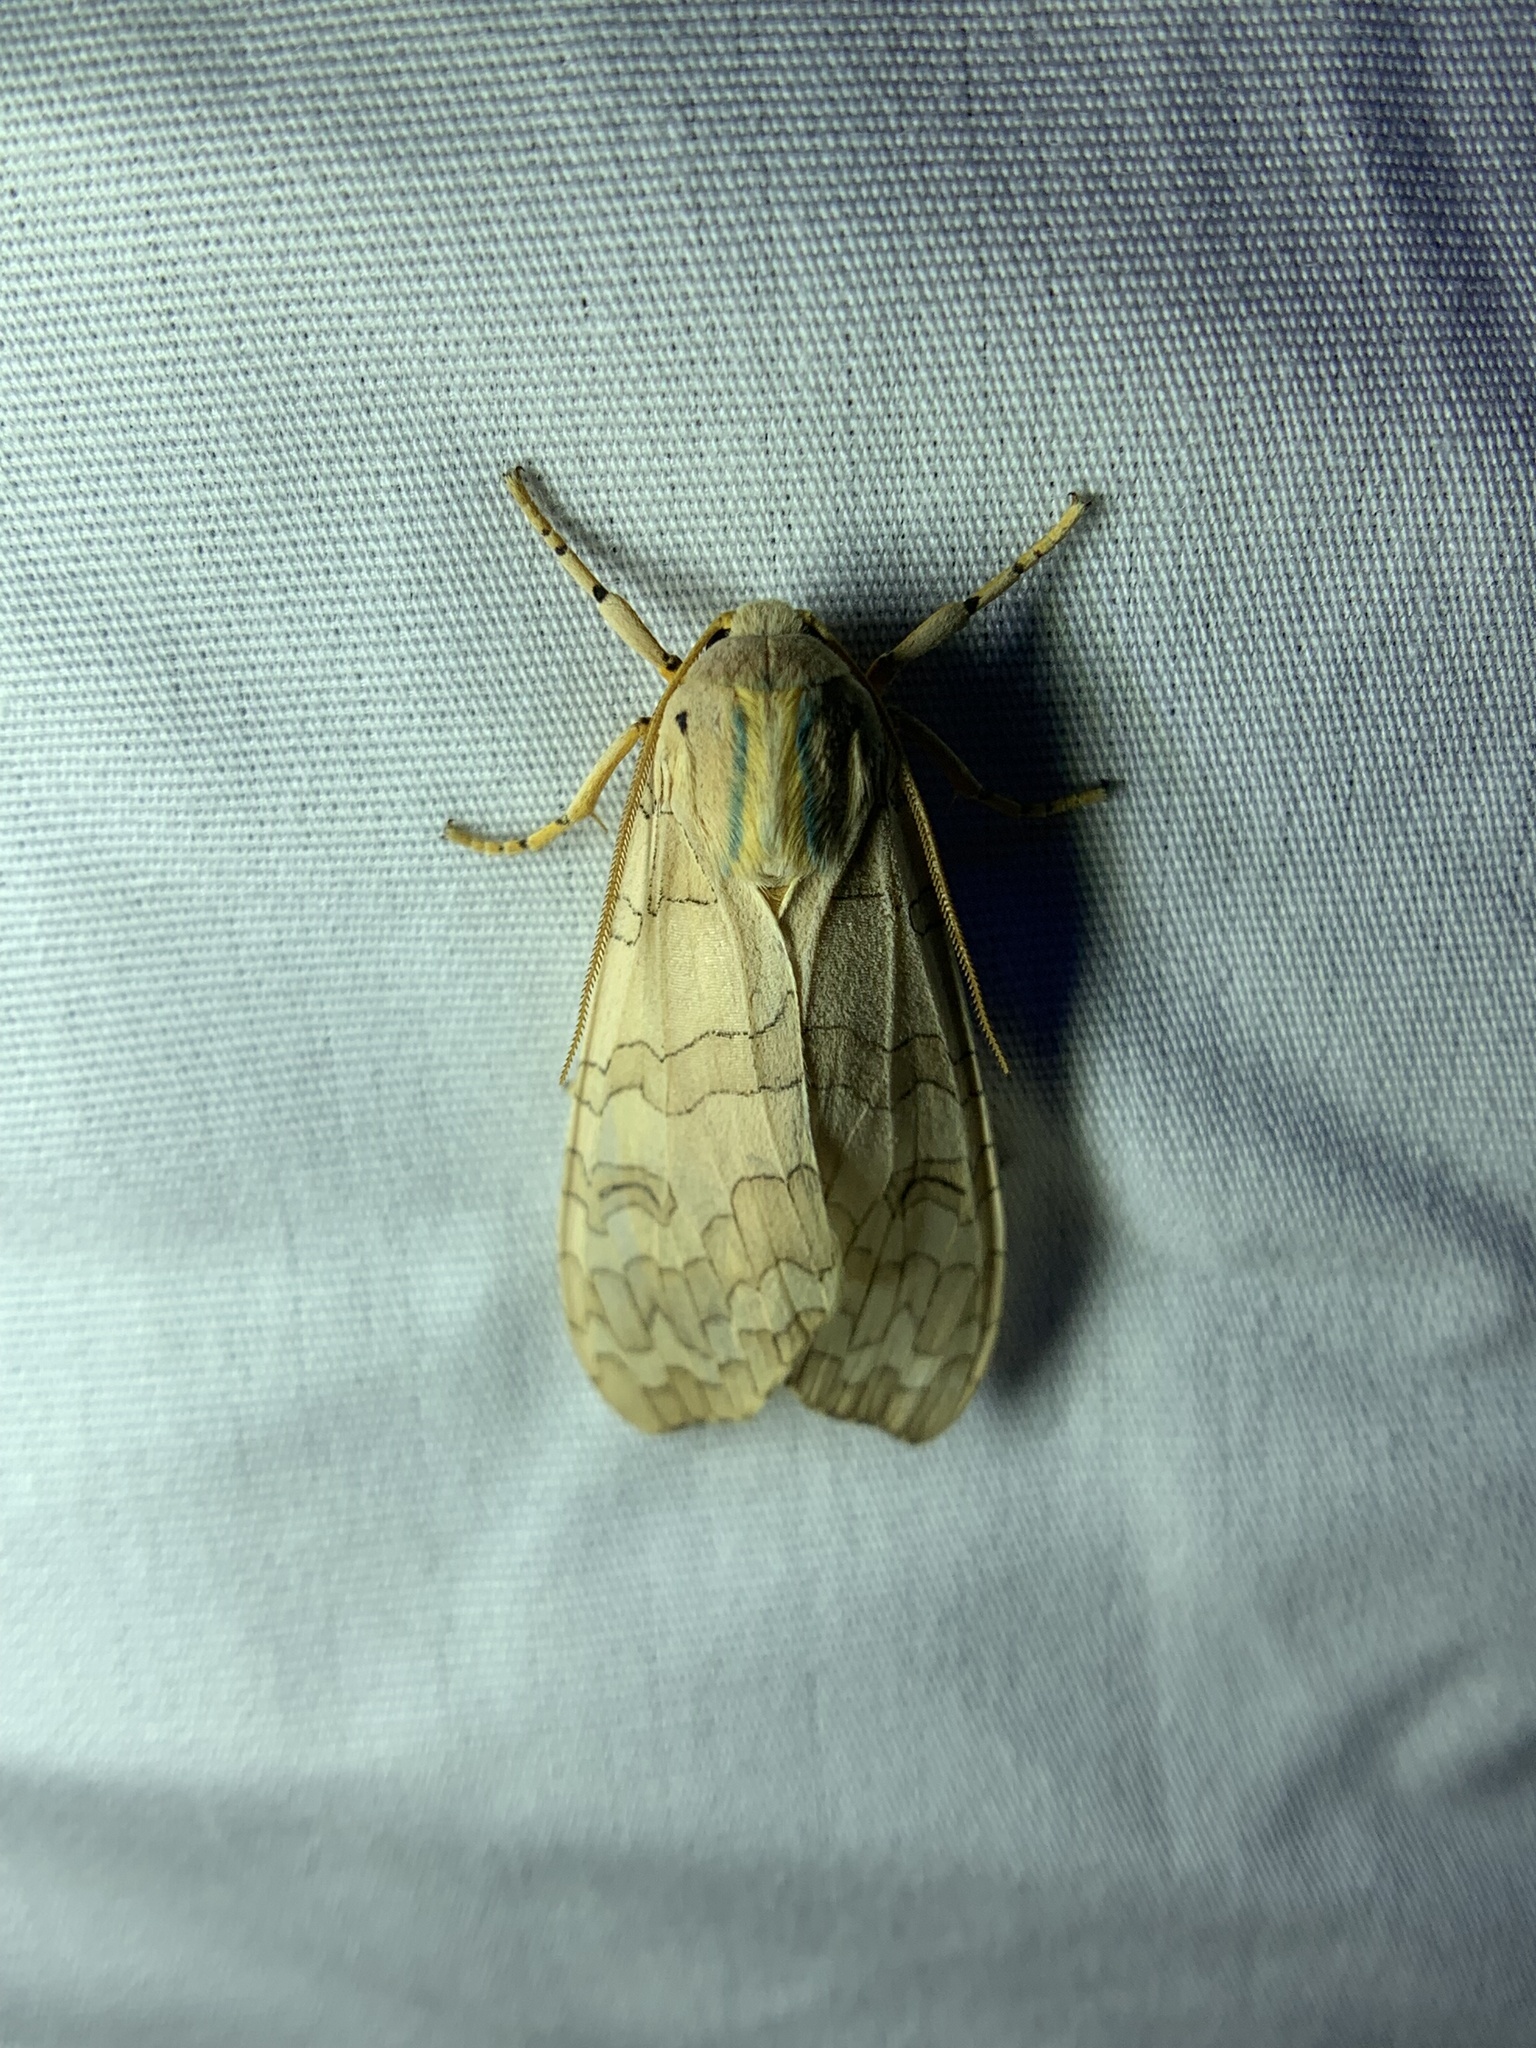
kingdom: Animalia
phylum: Arthropoda
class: Insecta
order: Lepidoptera
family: Erebidae
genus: Halysidota
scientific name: Halysidota
